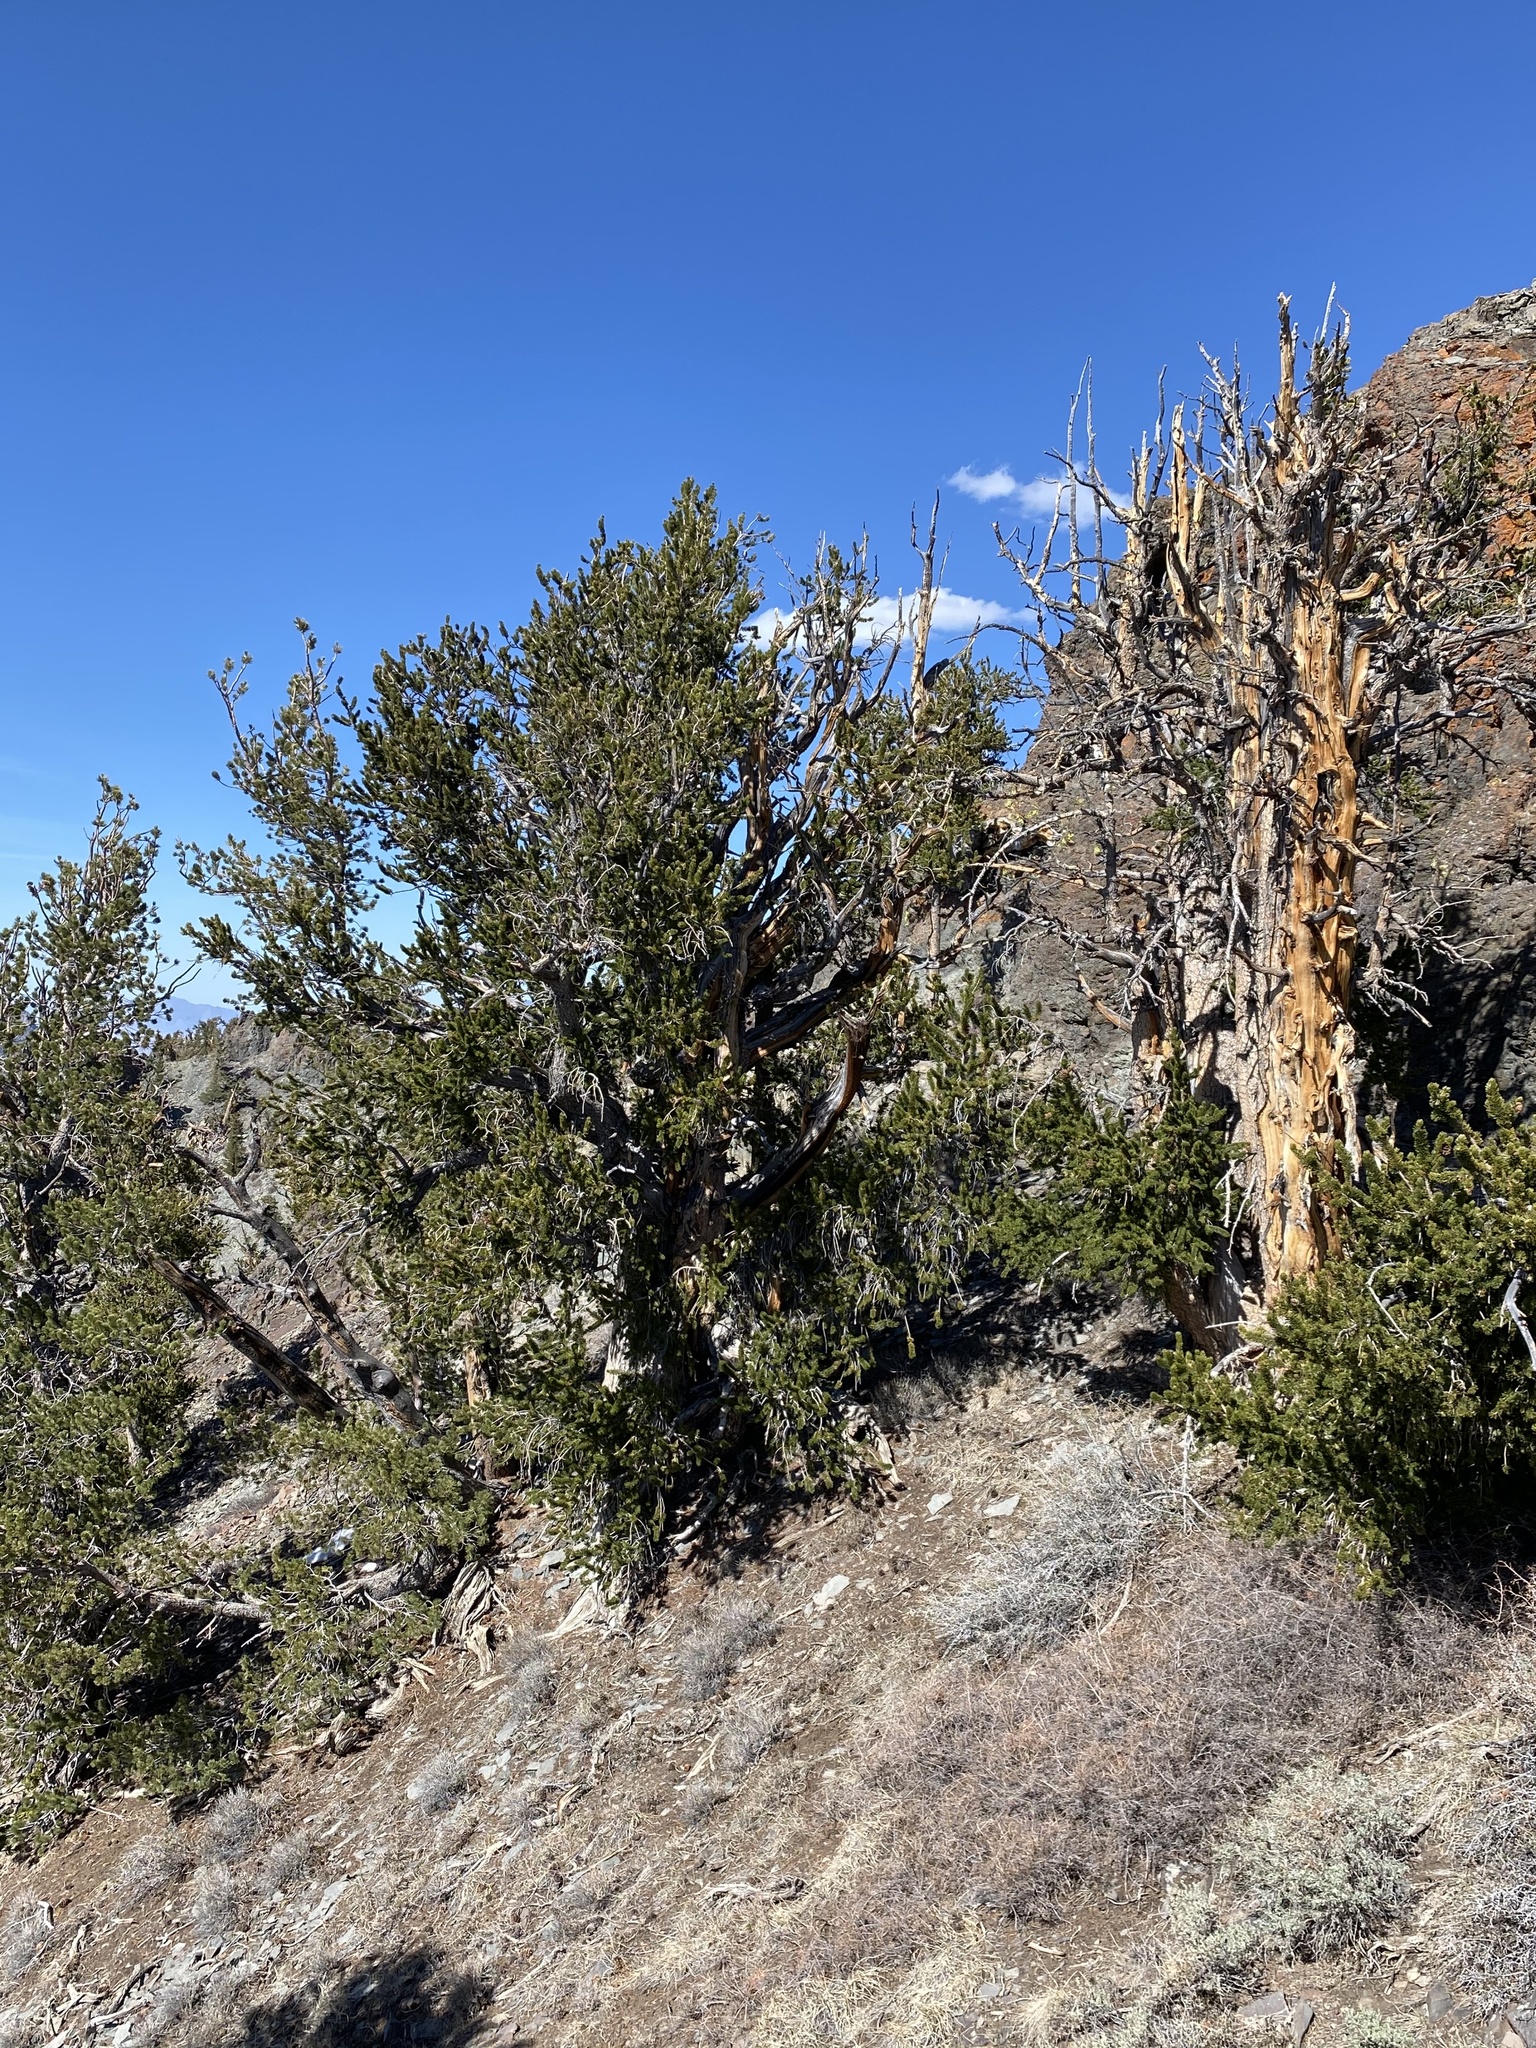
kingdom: Plantae
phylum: Tracheophyta
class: Pinopsida
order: Pinales
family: Pinaceae
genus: Pinus
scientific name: Pinus longaeva
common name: Intermountain bristlecone pine
